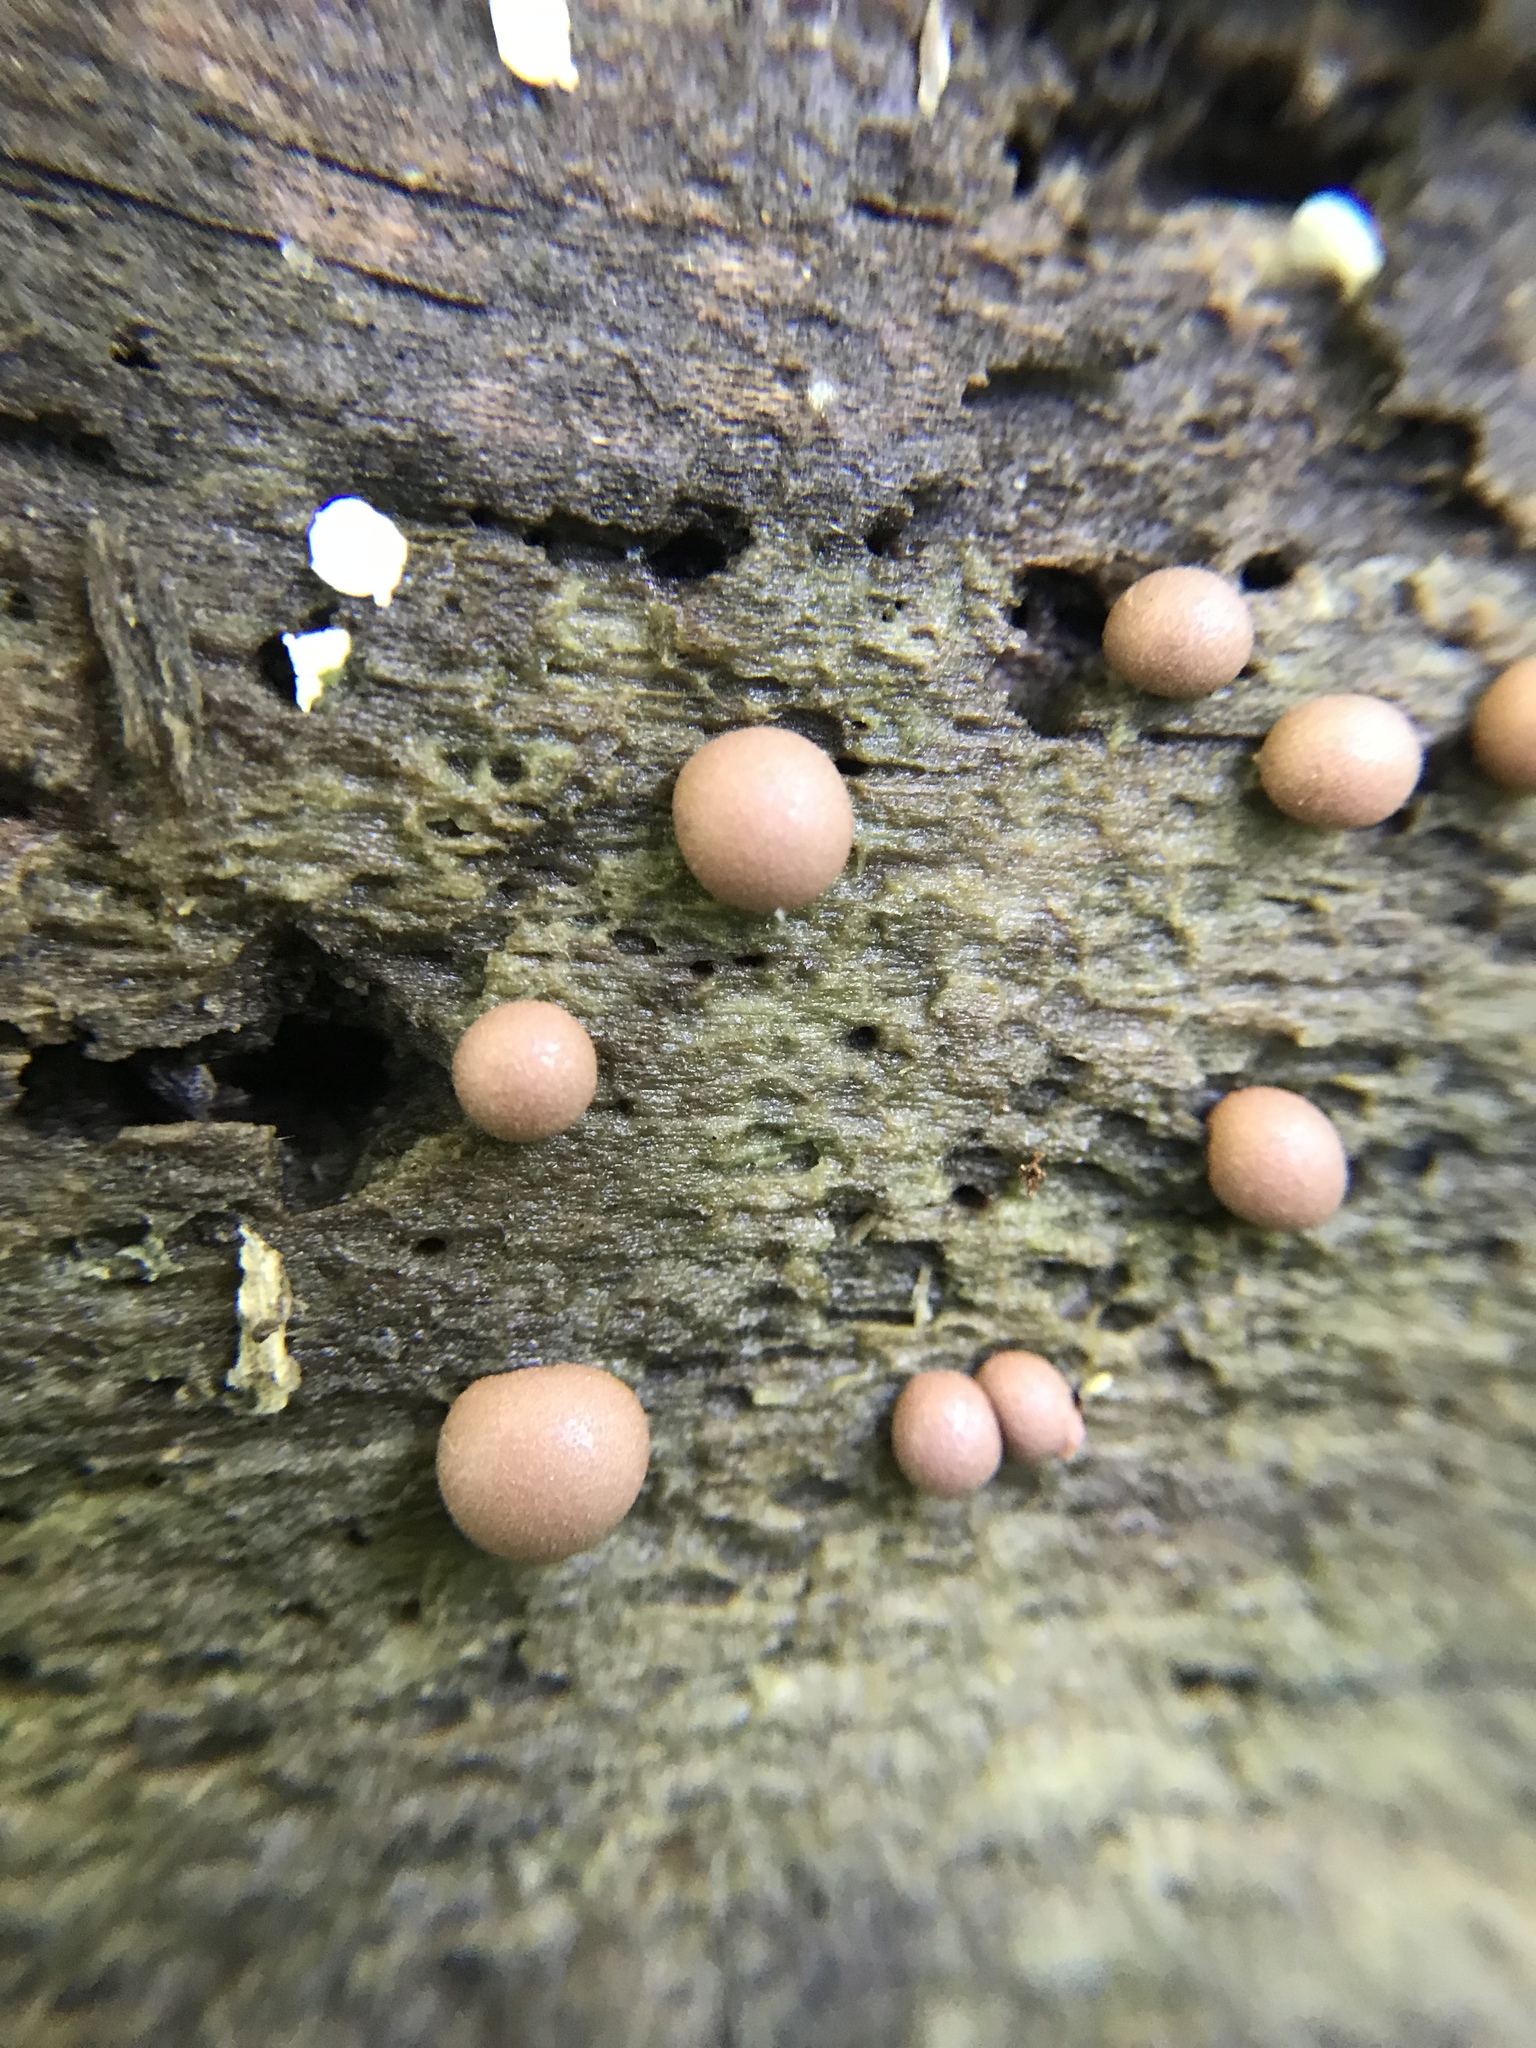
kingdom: Protozoa
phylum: Mycetozoa
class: Myxomycetes
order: Cribrariales
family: Tubiferaceae
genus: Lycogala
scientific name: Lycogala epidendrum
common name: Wolf's milk
